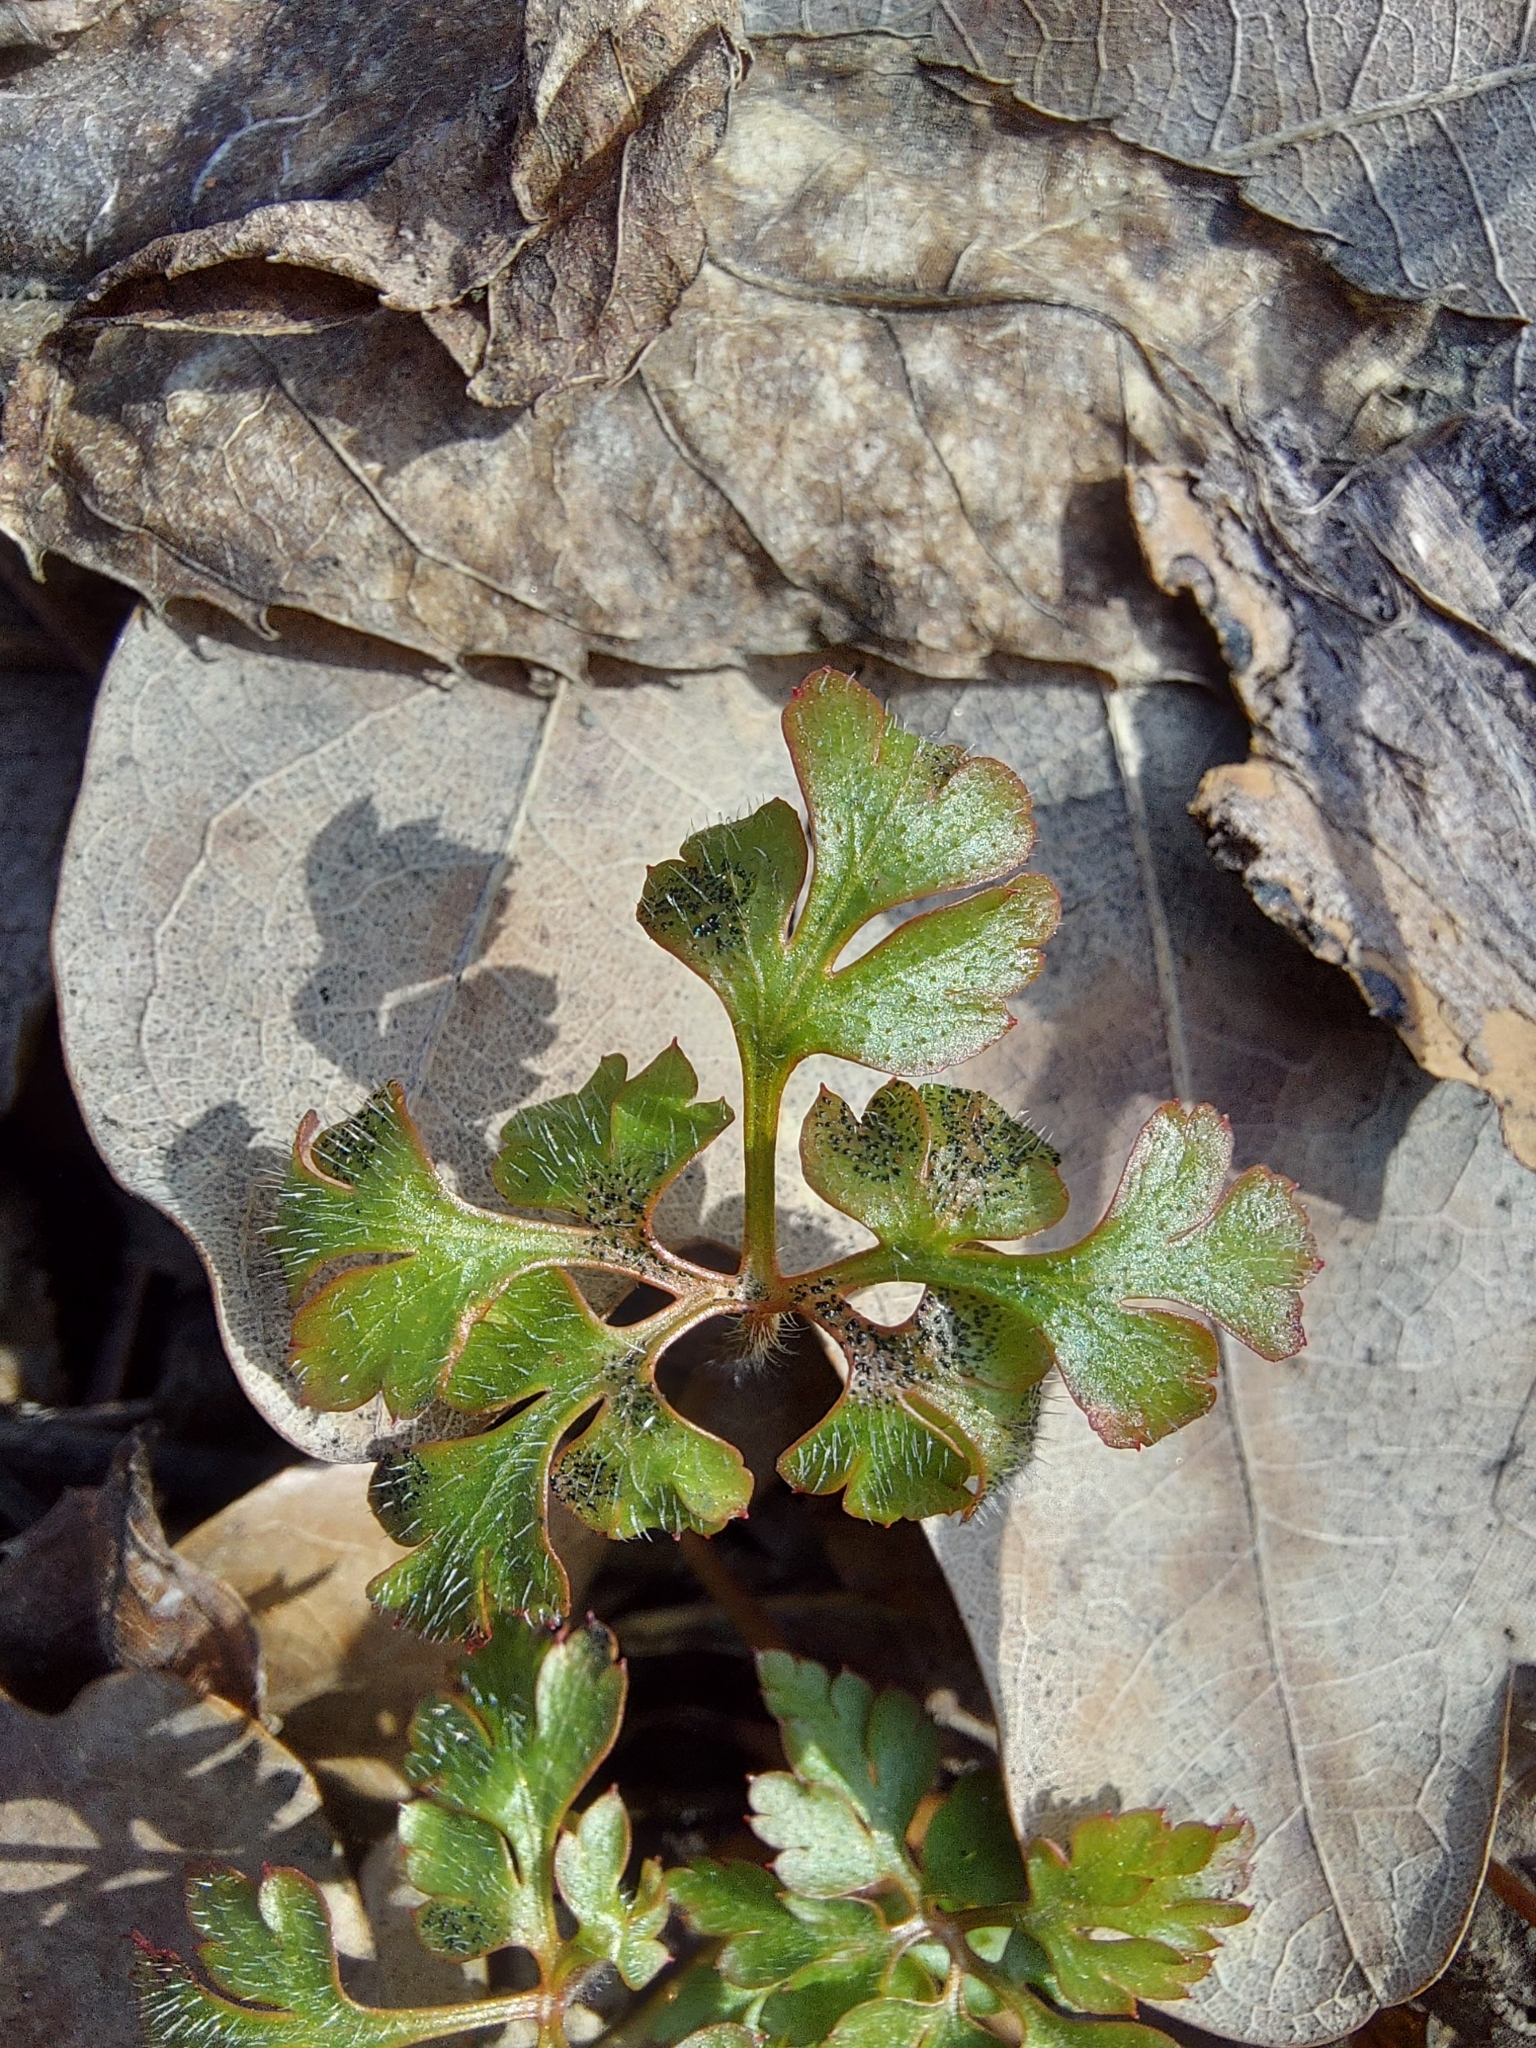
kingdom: Plantae
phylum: Tracheophyta
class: Magnoliopsida
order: Geraniales
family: Geraniaceae
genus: Geranium
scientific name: Geranium robertianum
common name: Herb-robert
